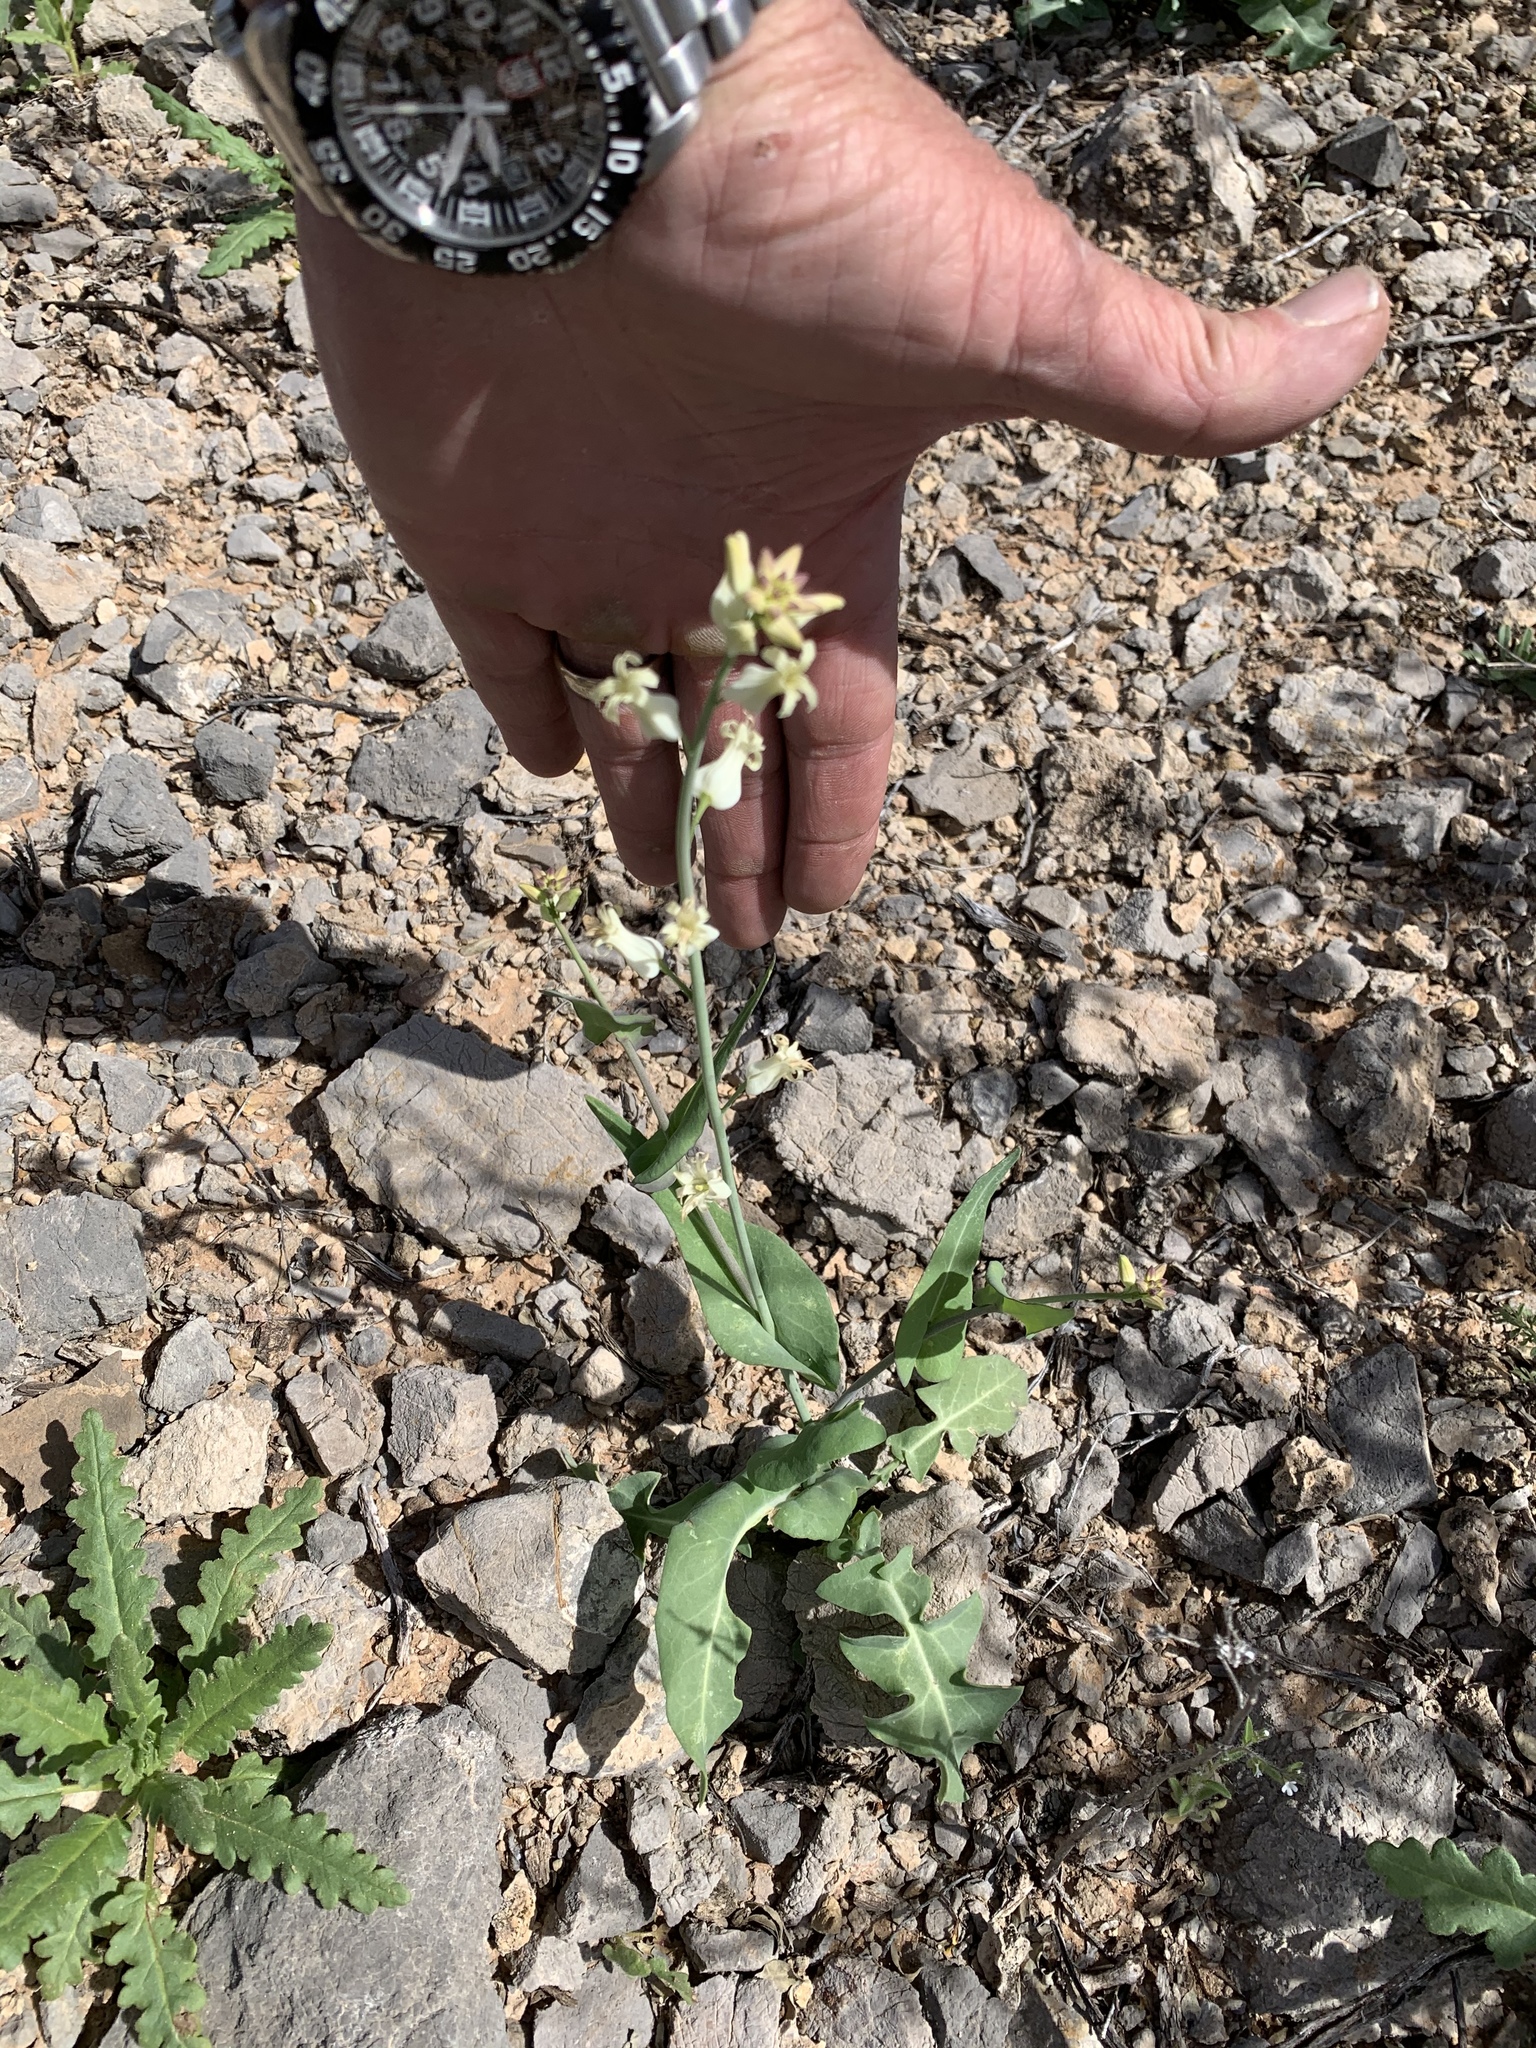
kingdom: Plantae
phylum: Tracheophyta
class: Magnoliopsida
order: Brassicales
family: Brassicaceae
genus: Streptanthus
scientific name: Streptanthus carinatus
